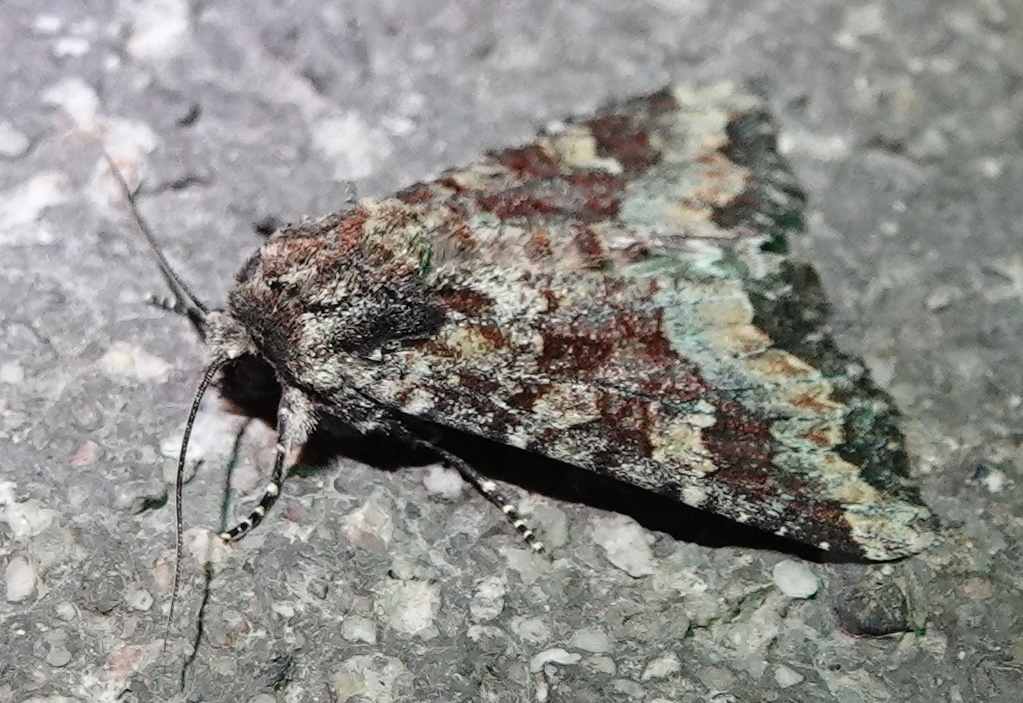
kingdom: Animalia
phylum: Arthropoda
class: Insecta
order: Lepidoptera
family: Noctuidae
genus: Apamea
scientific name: Apamea amputatrix
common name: Yellow-headed cutworm moth
